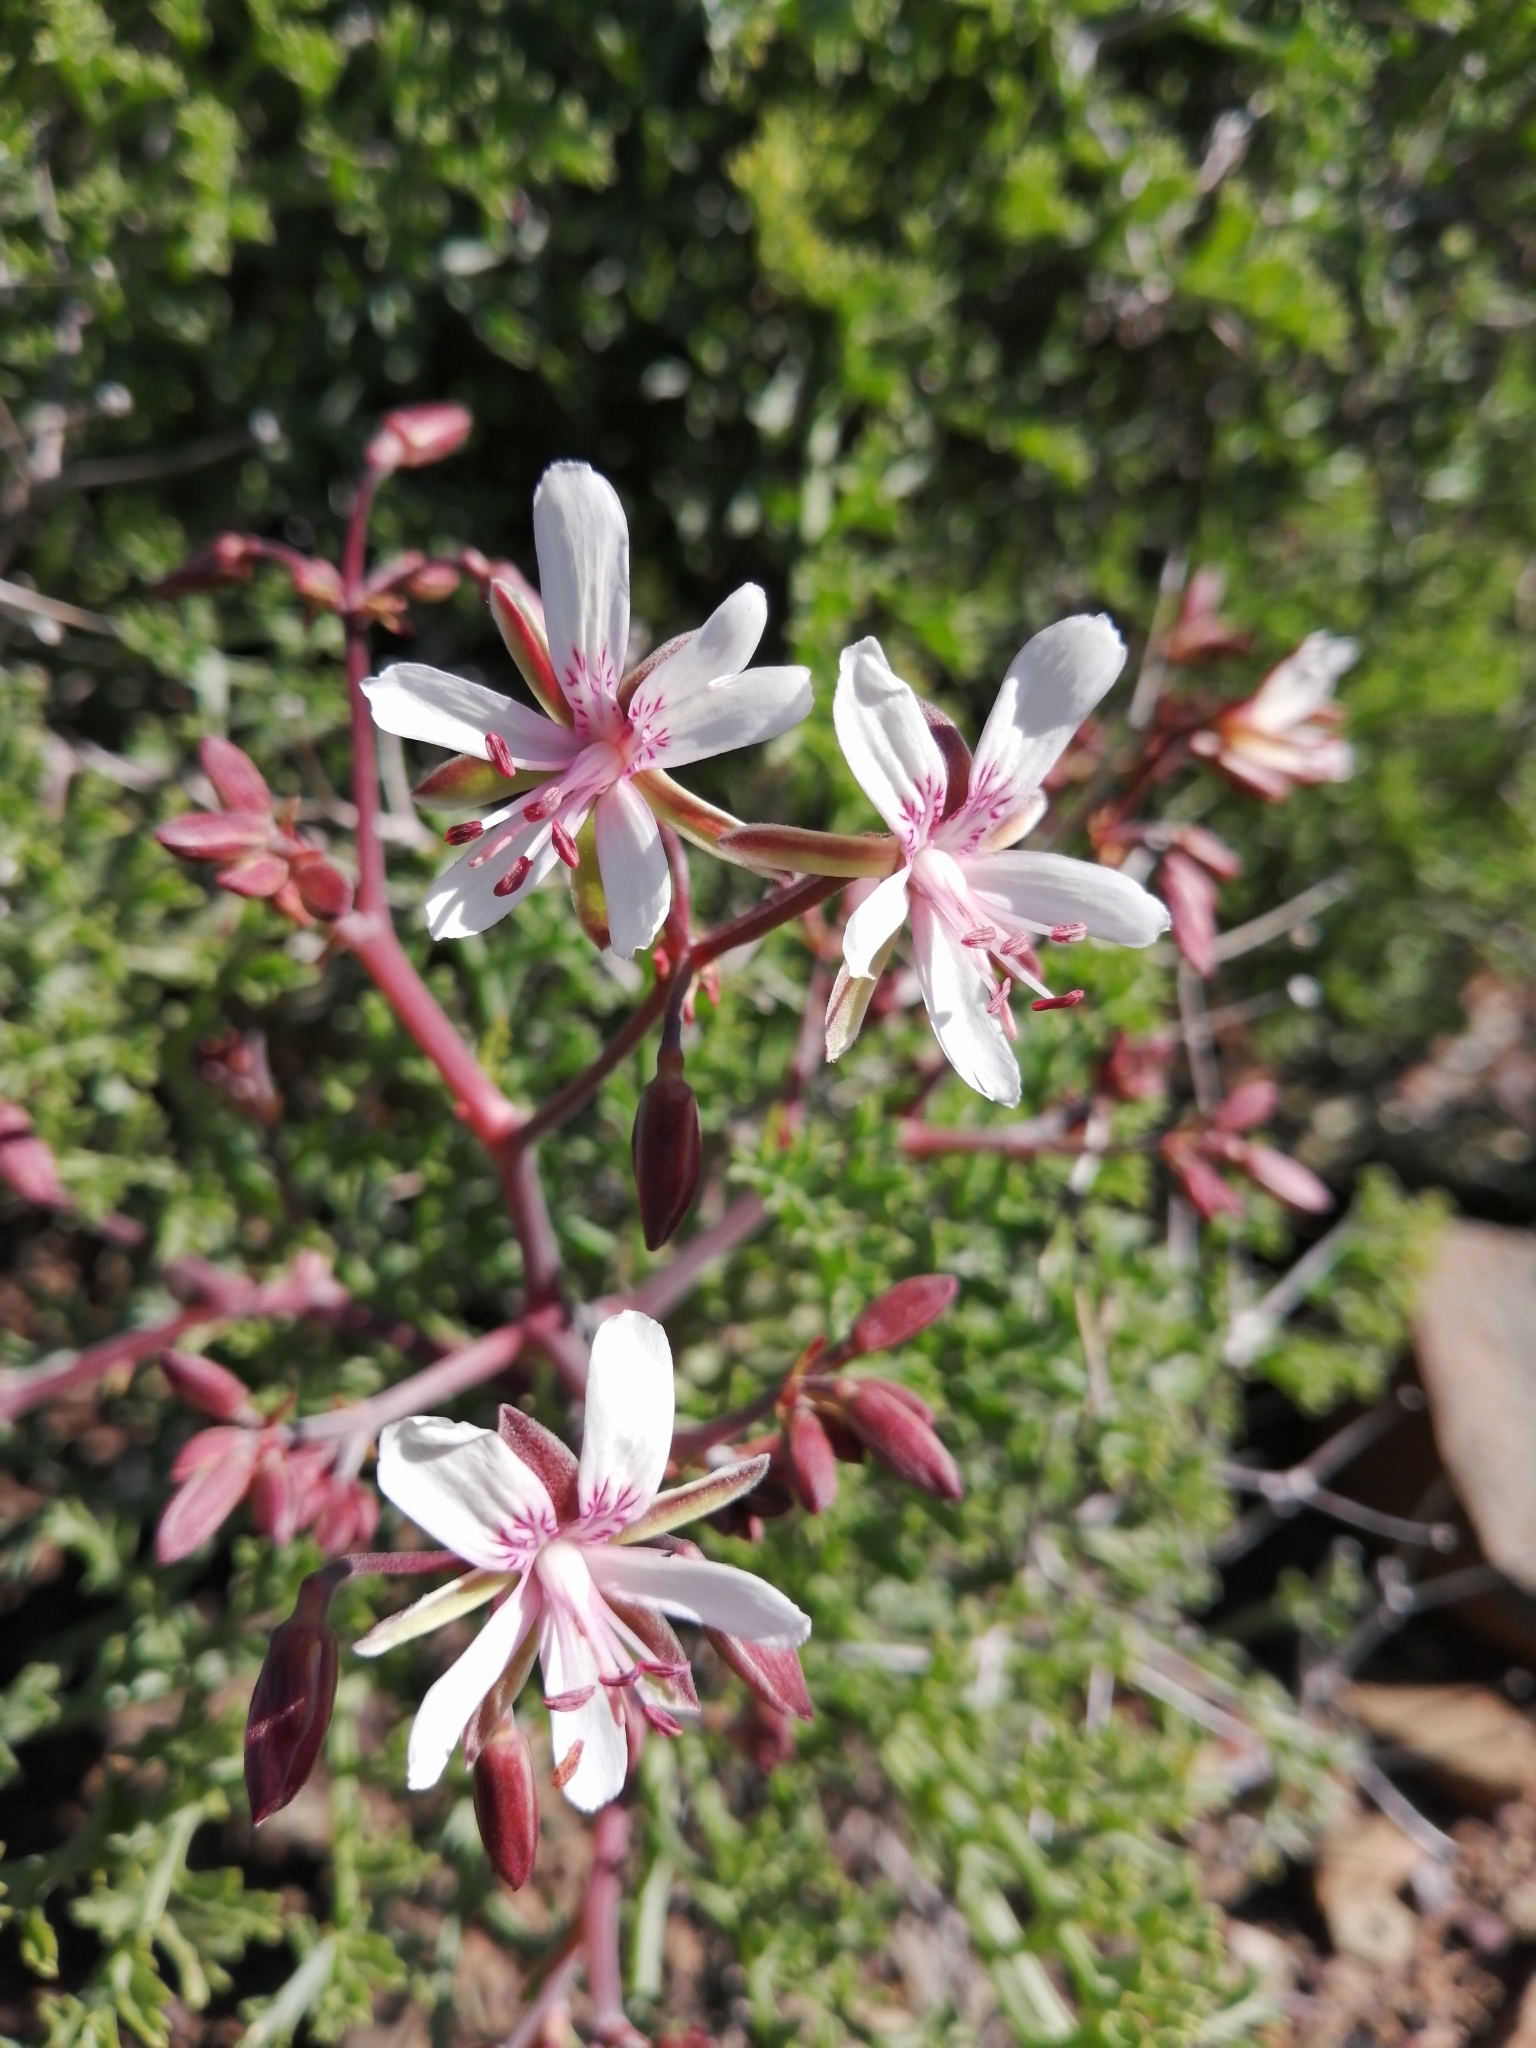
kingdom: Plantae
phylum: Tracheophyta
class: Magnoliopsida
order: Geraniales
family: Geraniaceae
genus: Pelargonium
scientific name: Pelargonium crithmifolium
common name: Samphire-leaf pelargonium
